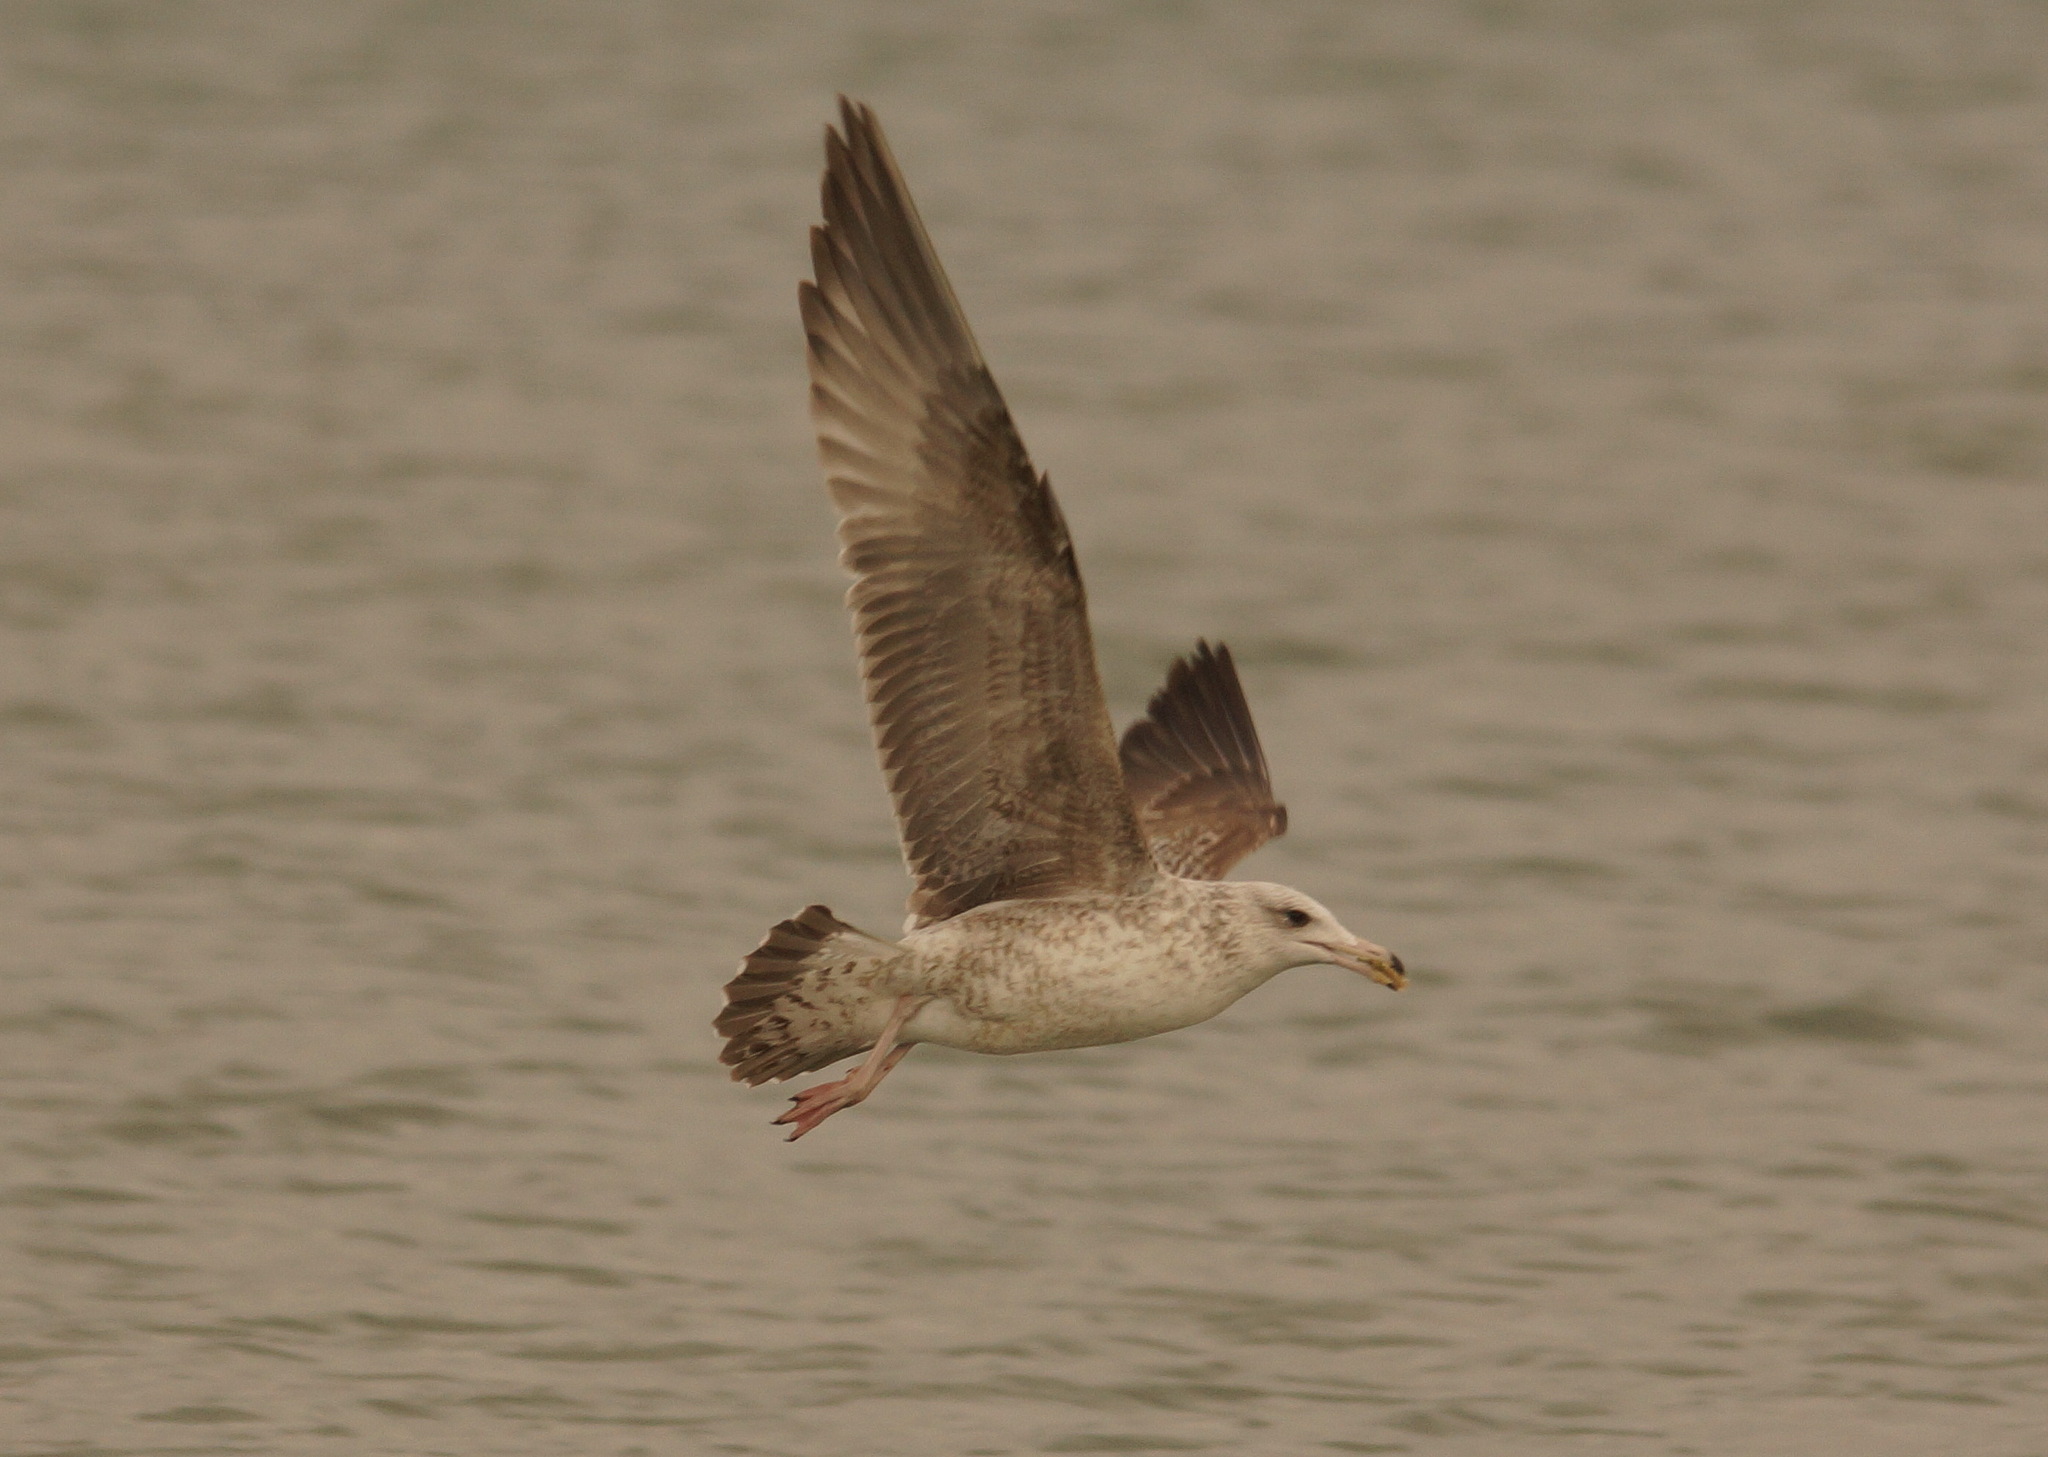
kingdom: Animalia
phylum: Chordata
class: Aves
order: Charadriiformes
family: Laridae
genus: Larus
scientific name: Larus michahellis
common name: Yellow-legged gull
